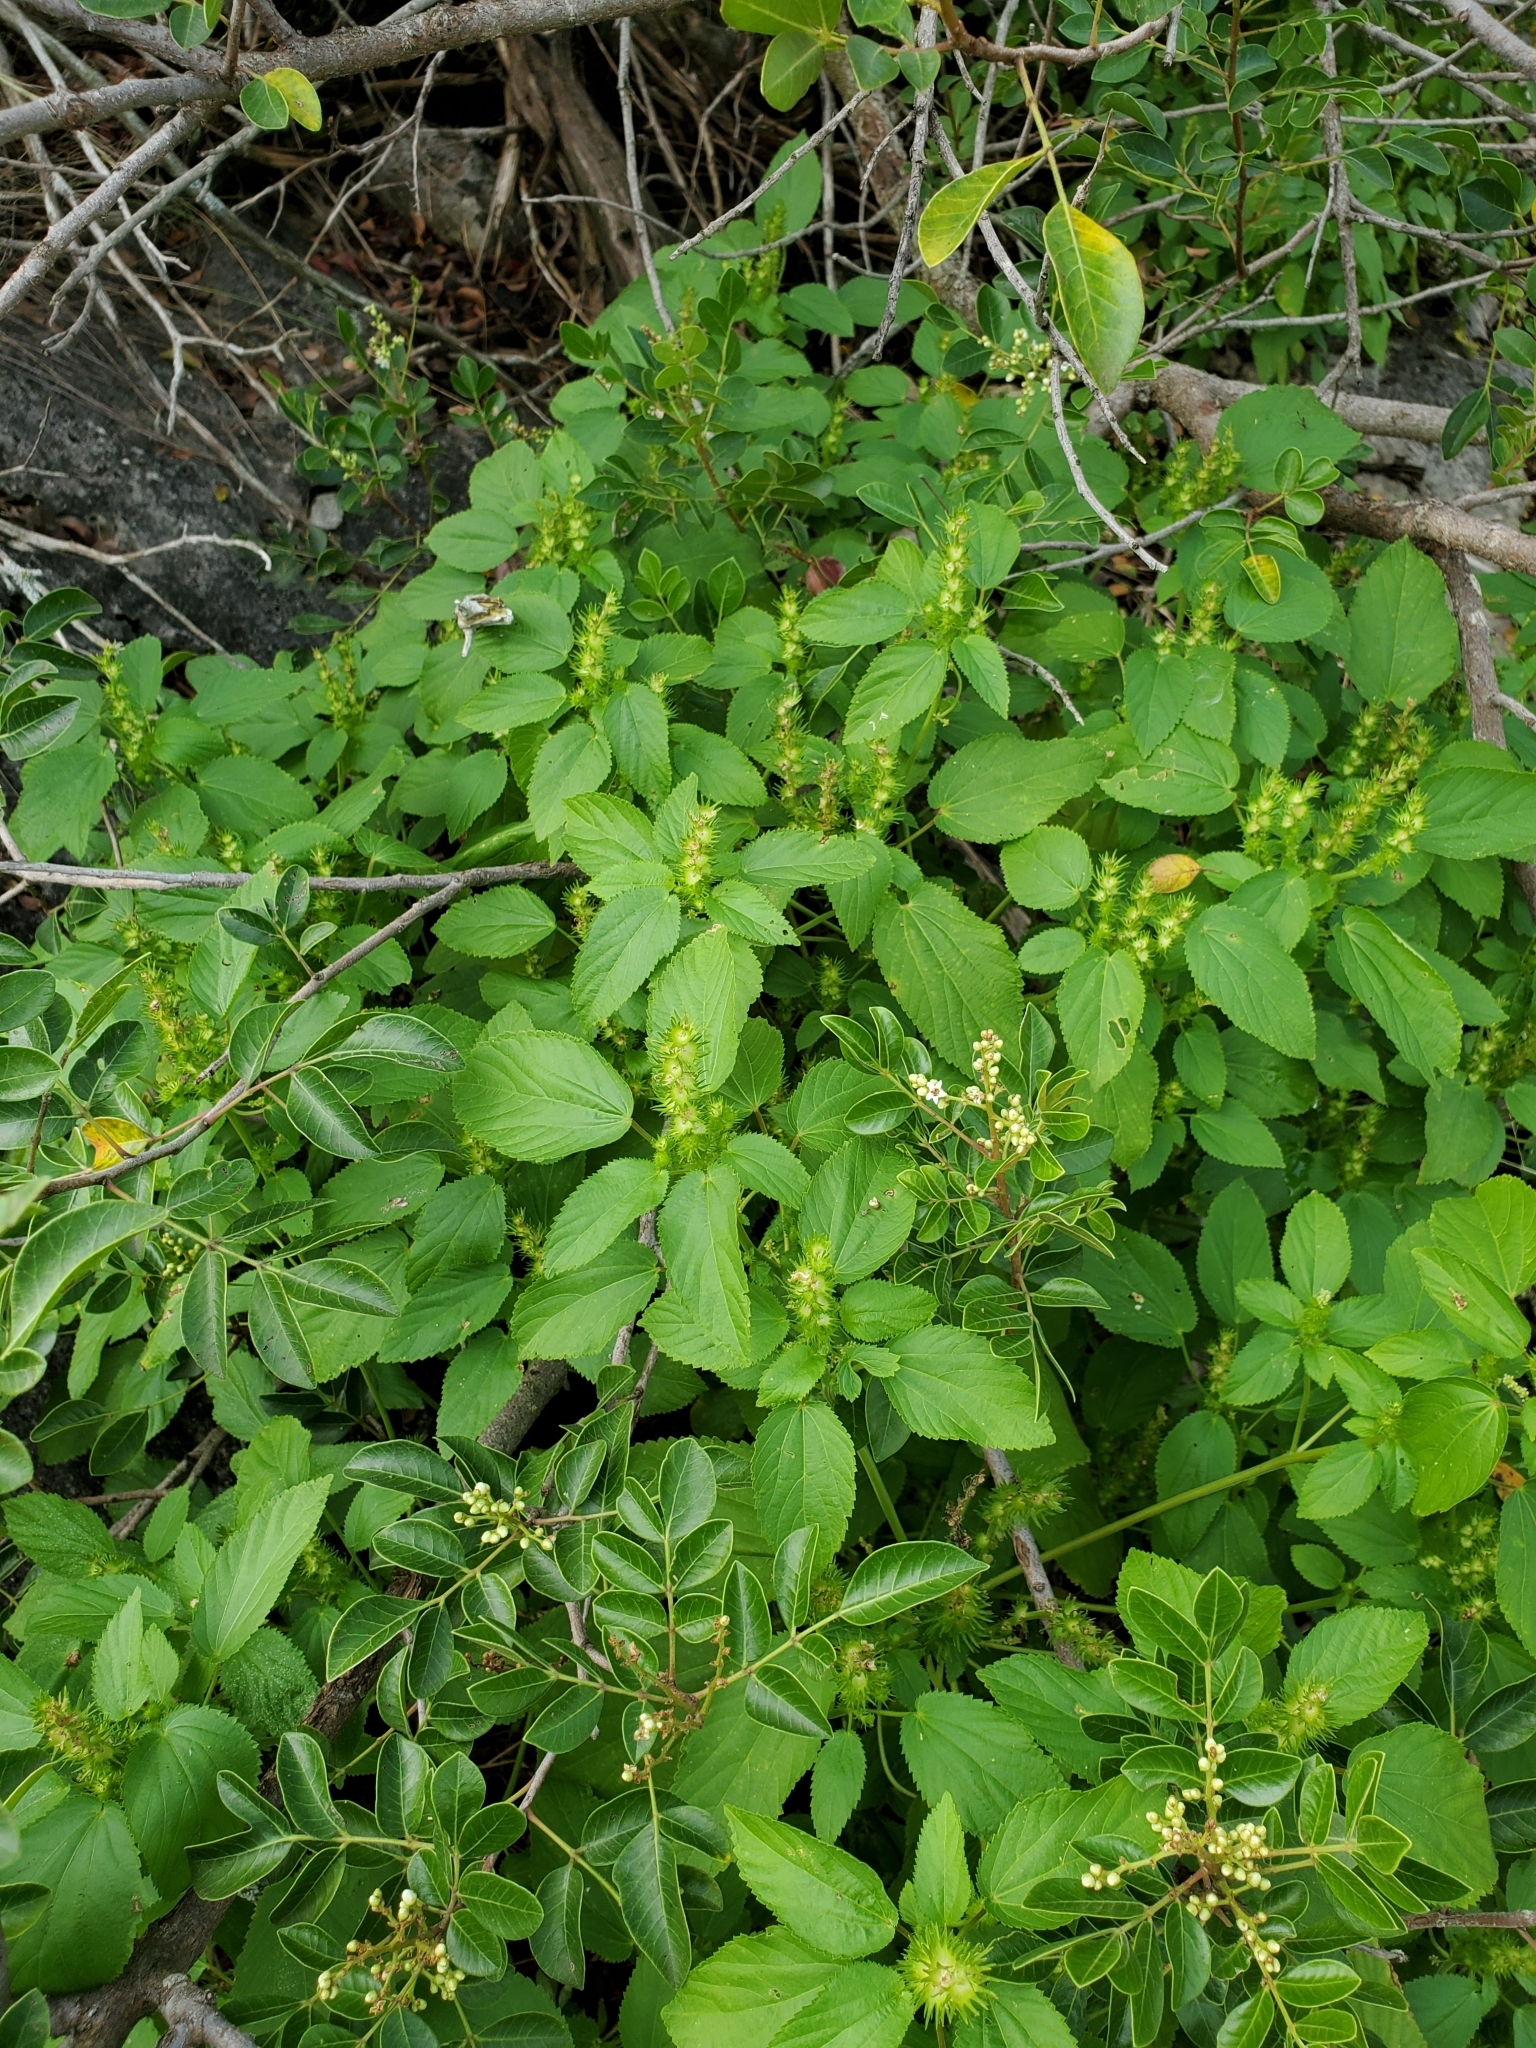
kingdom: Plantae
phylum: Tracheophyta
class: Magnoliopsida
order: Malpighiales
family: Euphorbiaceae
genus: Acalypha
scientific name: Acalypha ostryifolia
